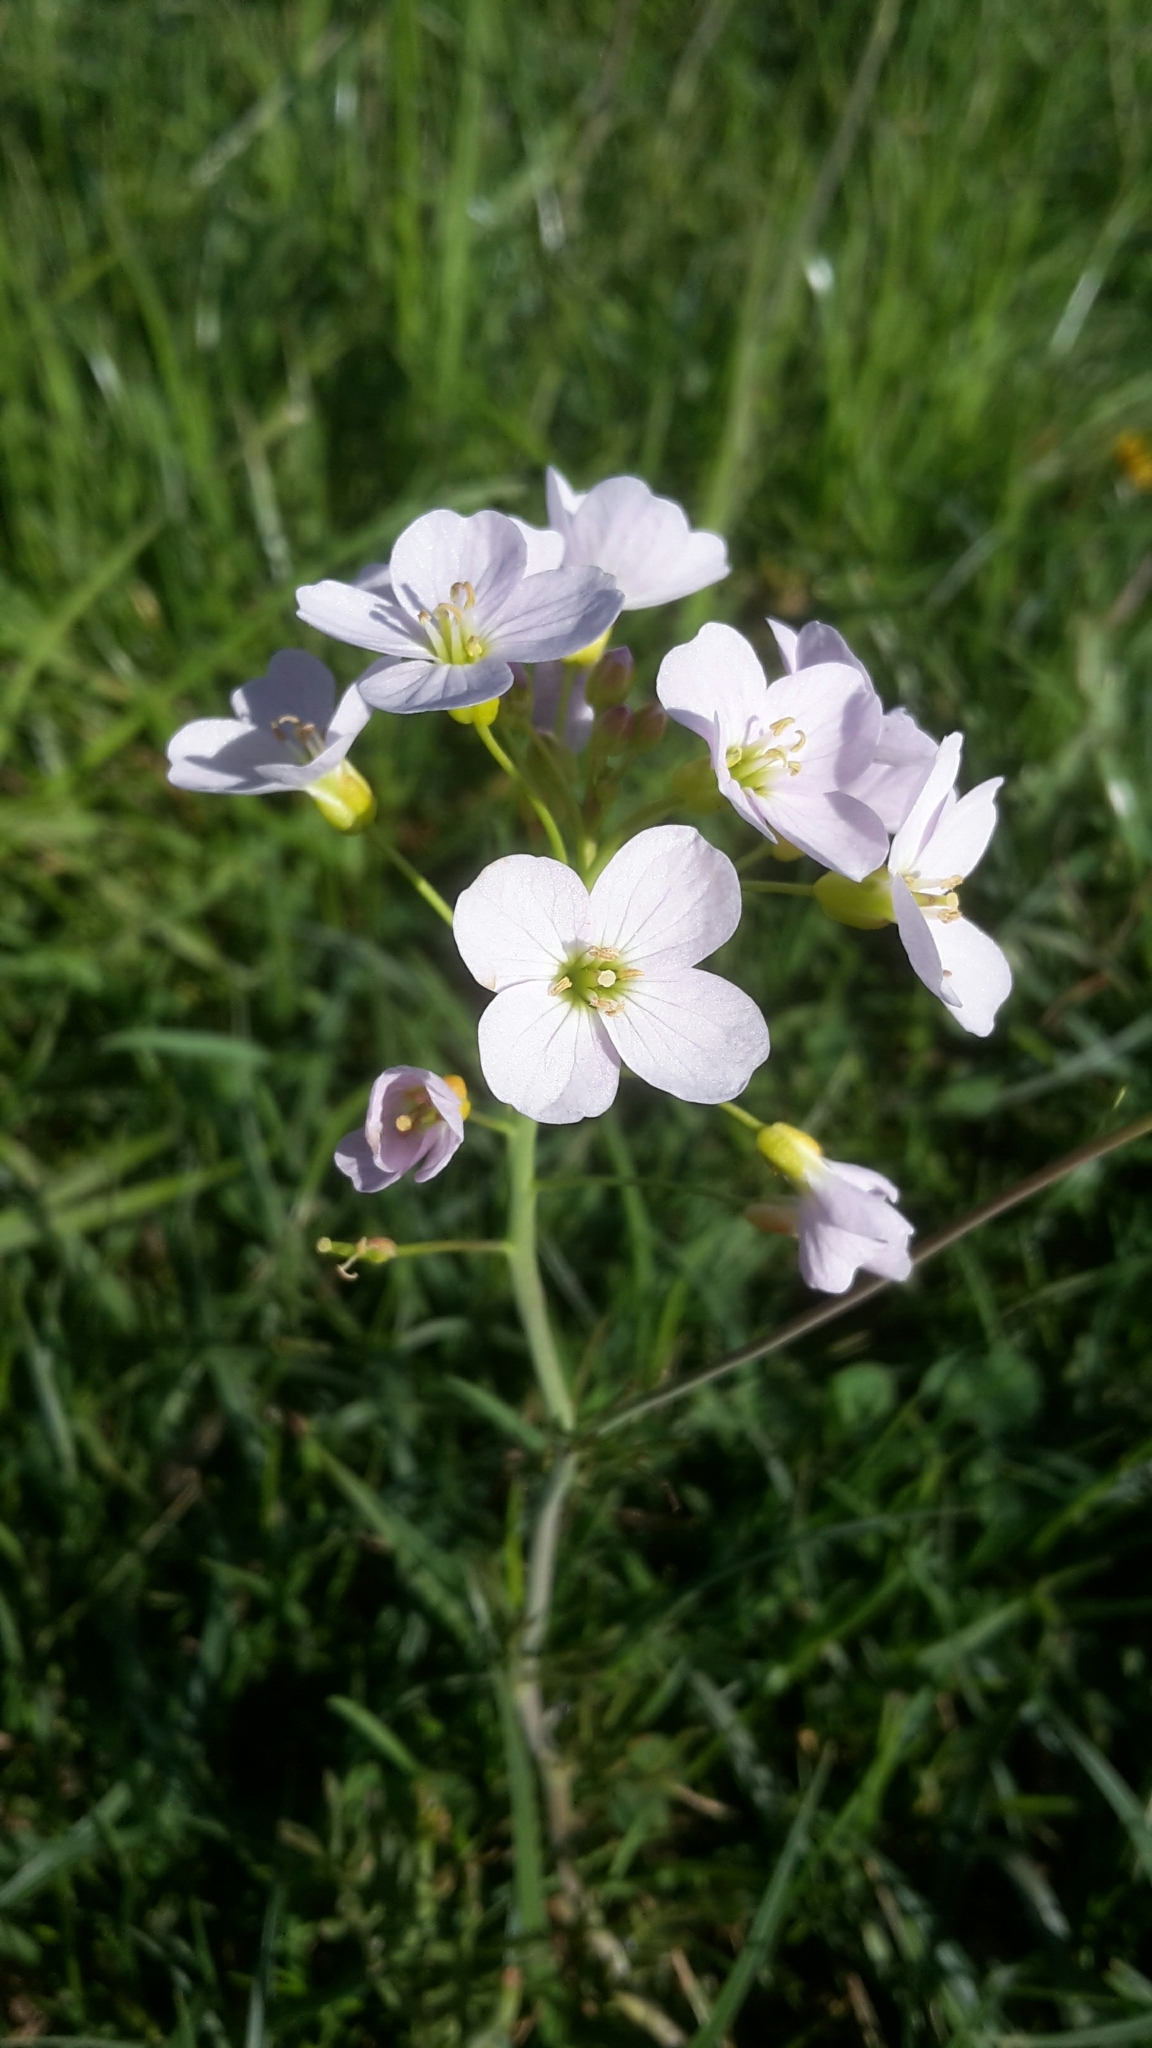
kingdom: Plantae
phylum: Tracheophyta
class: Magnoliopsida
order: Brassicales
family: Brassicaceae
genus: Cardamine
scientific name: Cardamine pratensis
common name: Cuckoo flower
